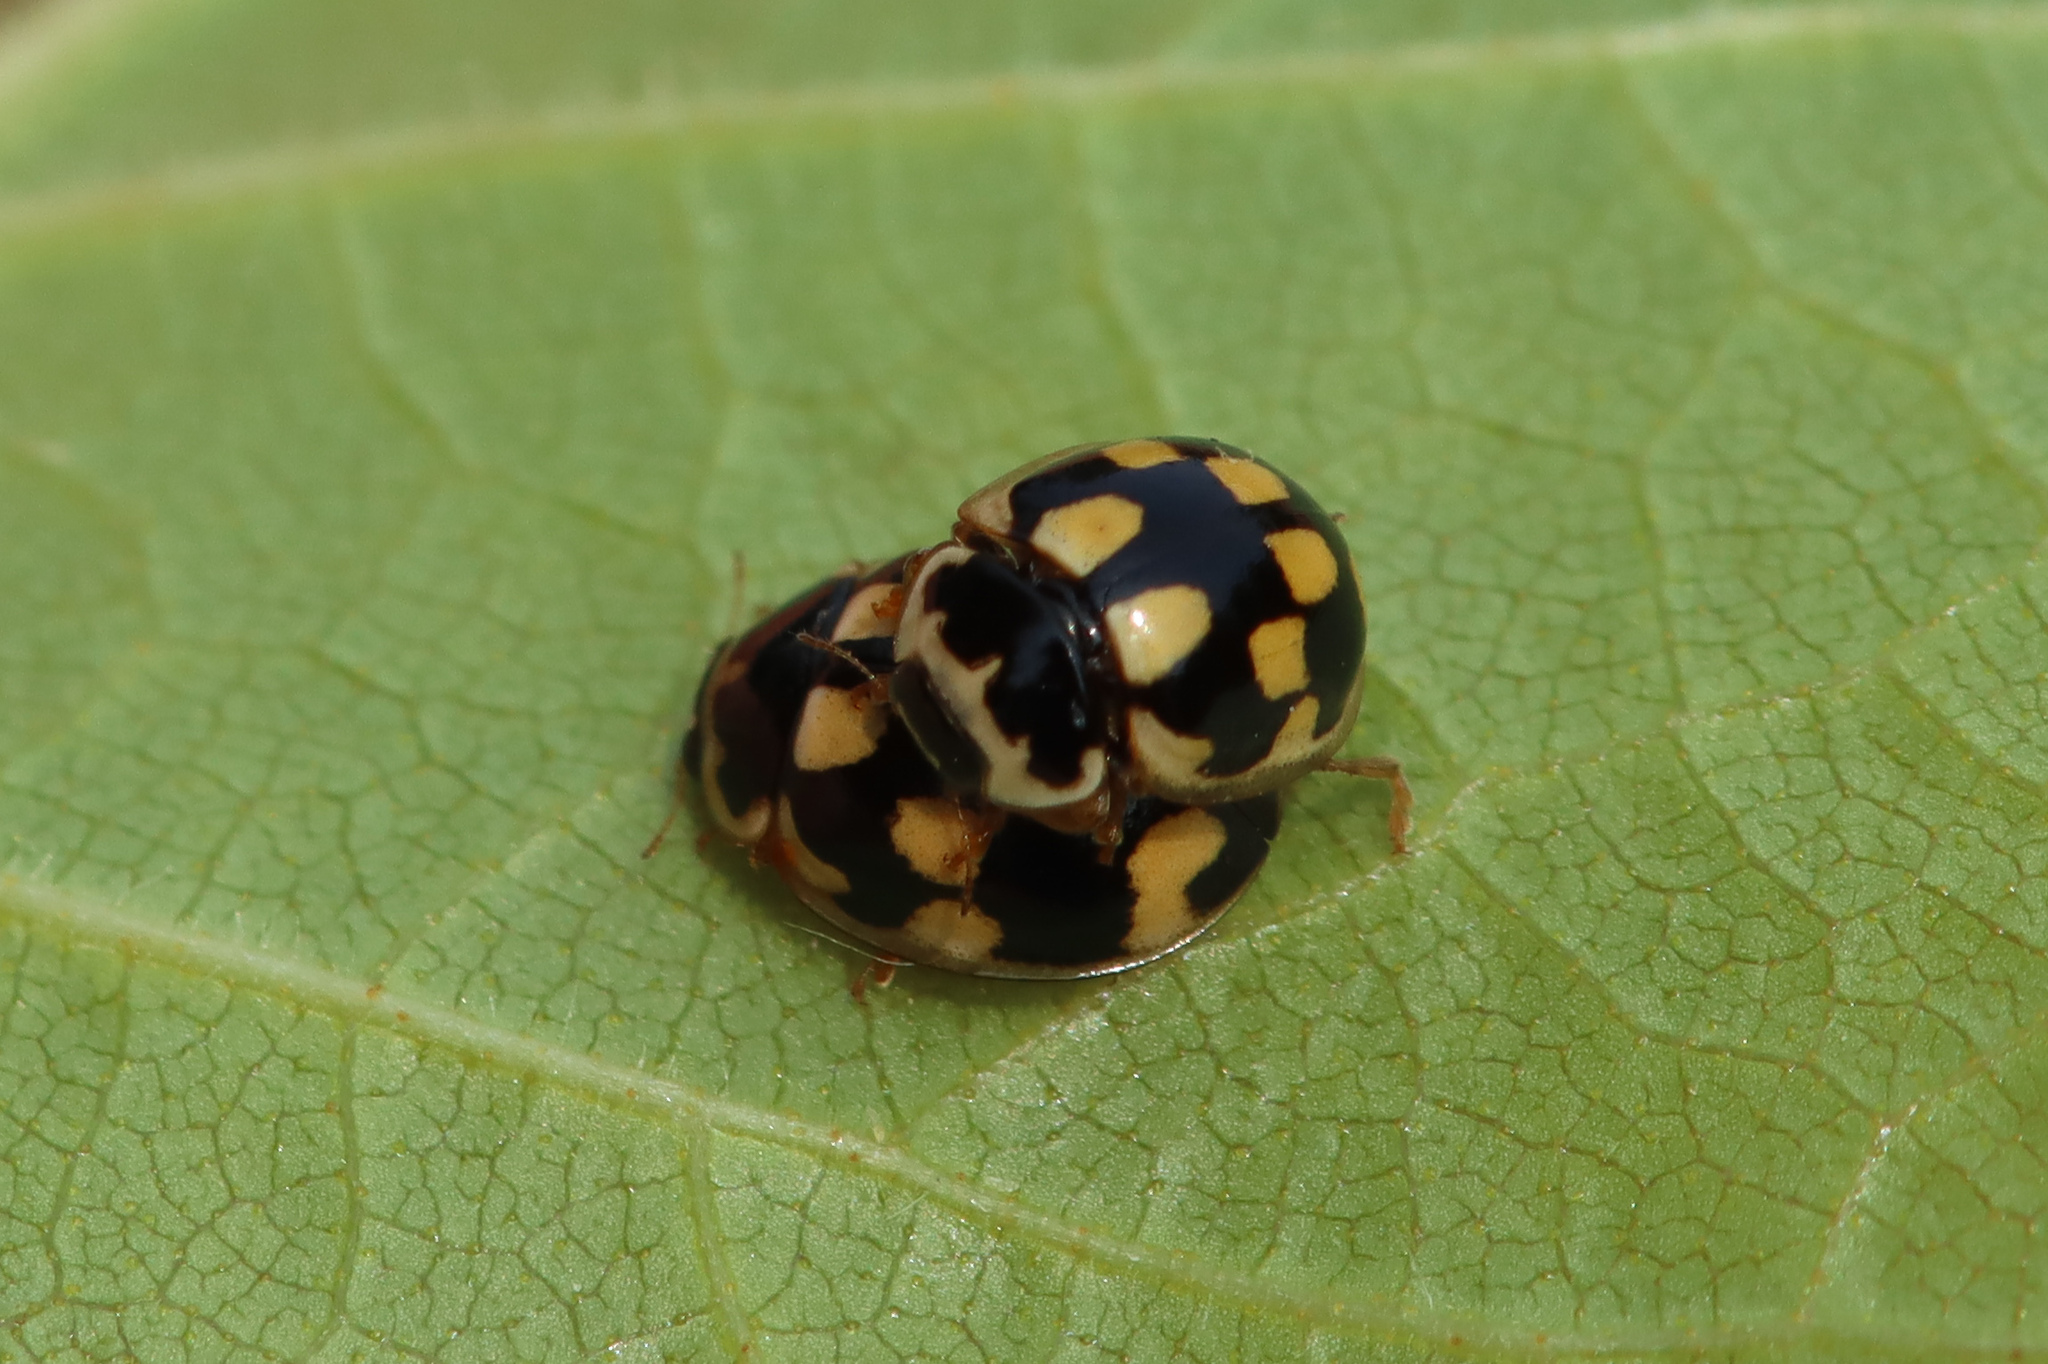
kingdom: Animalia
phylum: Arthropoda
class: Insecta
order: Coleoptera
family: Coccinellidae
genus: Propylaea
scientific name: Propylaea quatuordecimpunctata
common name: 14-spotted ladybird beetle
